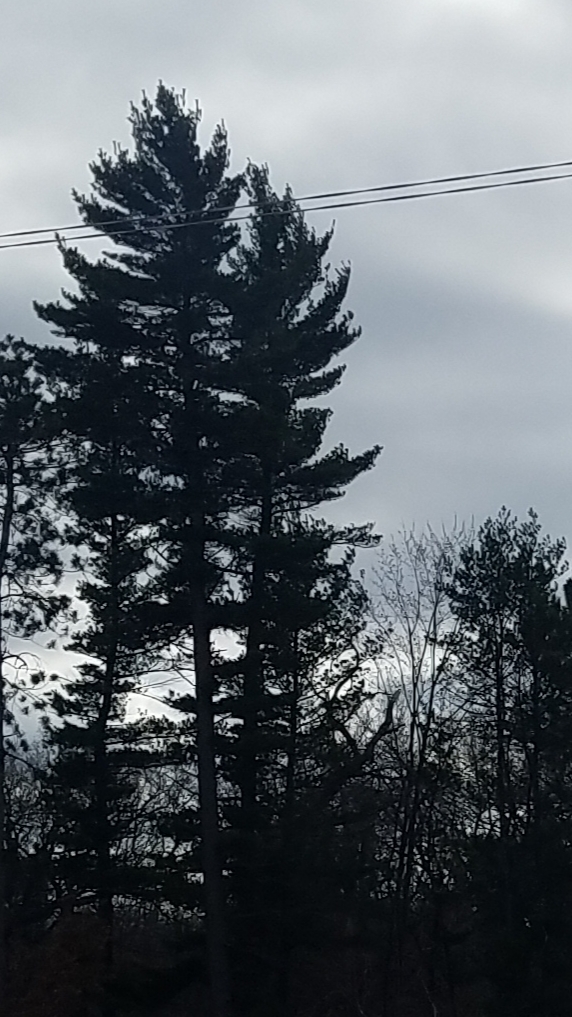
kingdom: Plantae
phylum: Tracheophyta
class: Pinopsida
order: Pinales
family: Pinaceae
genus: Pinus
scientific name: Pinus strobus
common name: Weymouth pine
